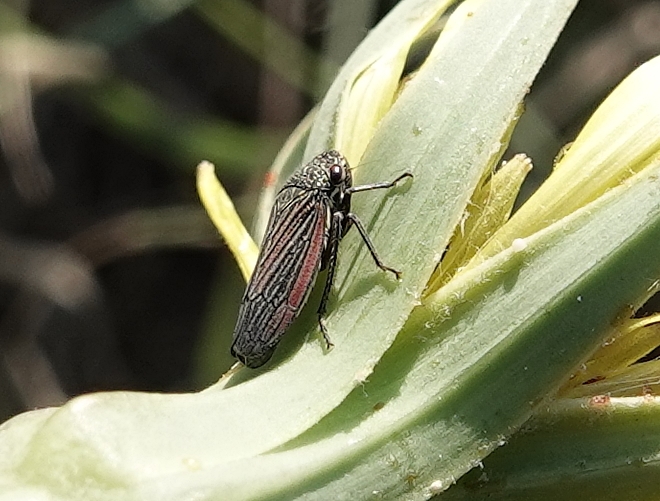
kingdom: Animalia
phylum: Arthropoda
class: Insecta
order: Hemiptera
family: Cicadellidae
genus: Cuerna
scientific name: Cuerna striata
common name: Striped leafhopper
